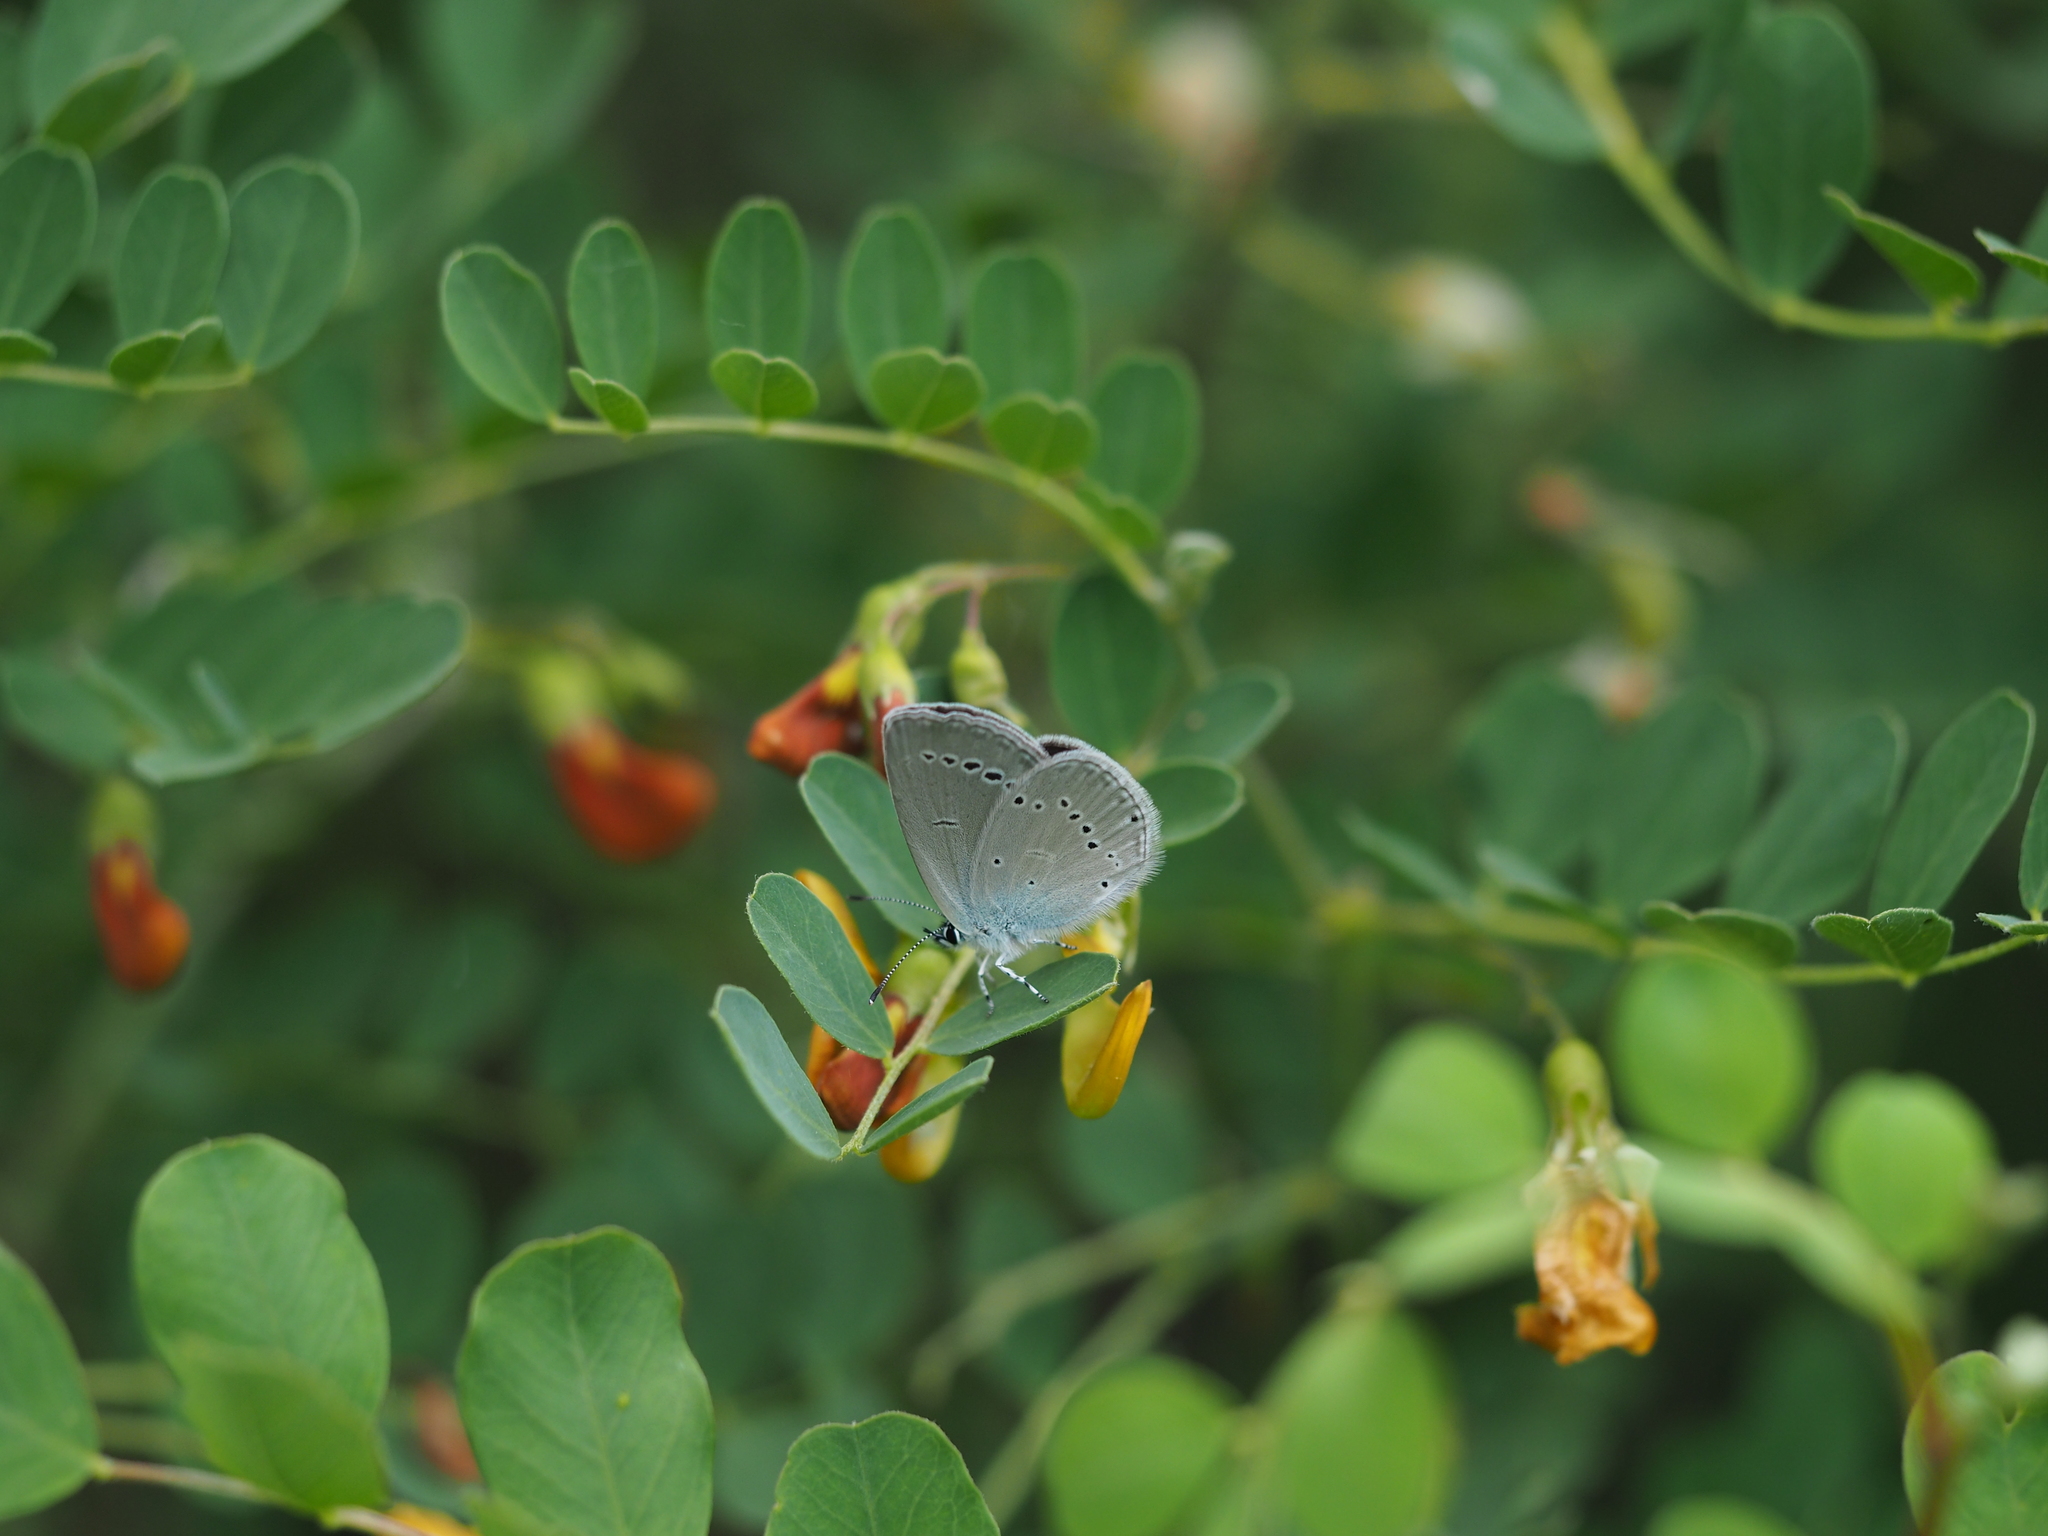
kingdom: Animalia
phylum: Arthropoda
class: Insecta
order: Lepidoptera
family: Lycaenidae
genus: Cupido
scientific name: Cupido minimus
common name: Small blue
